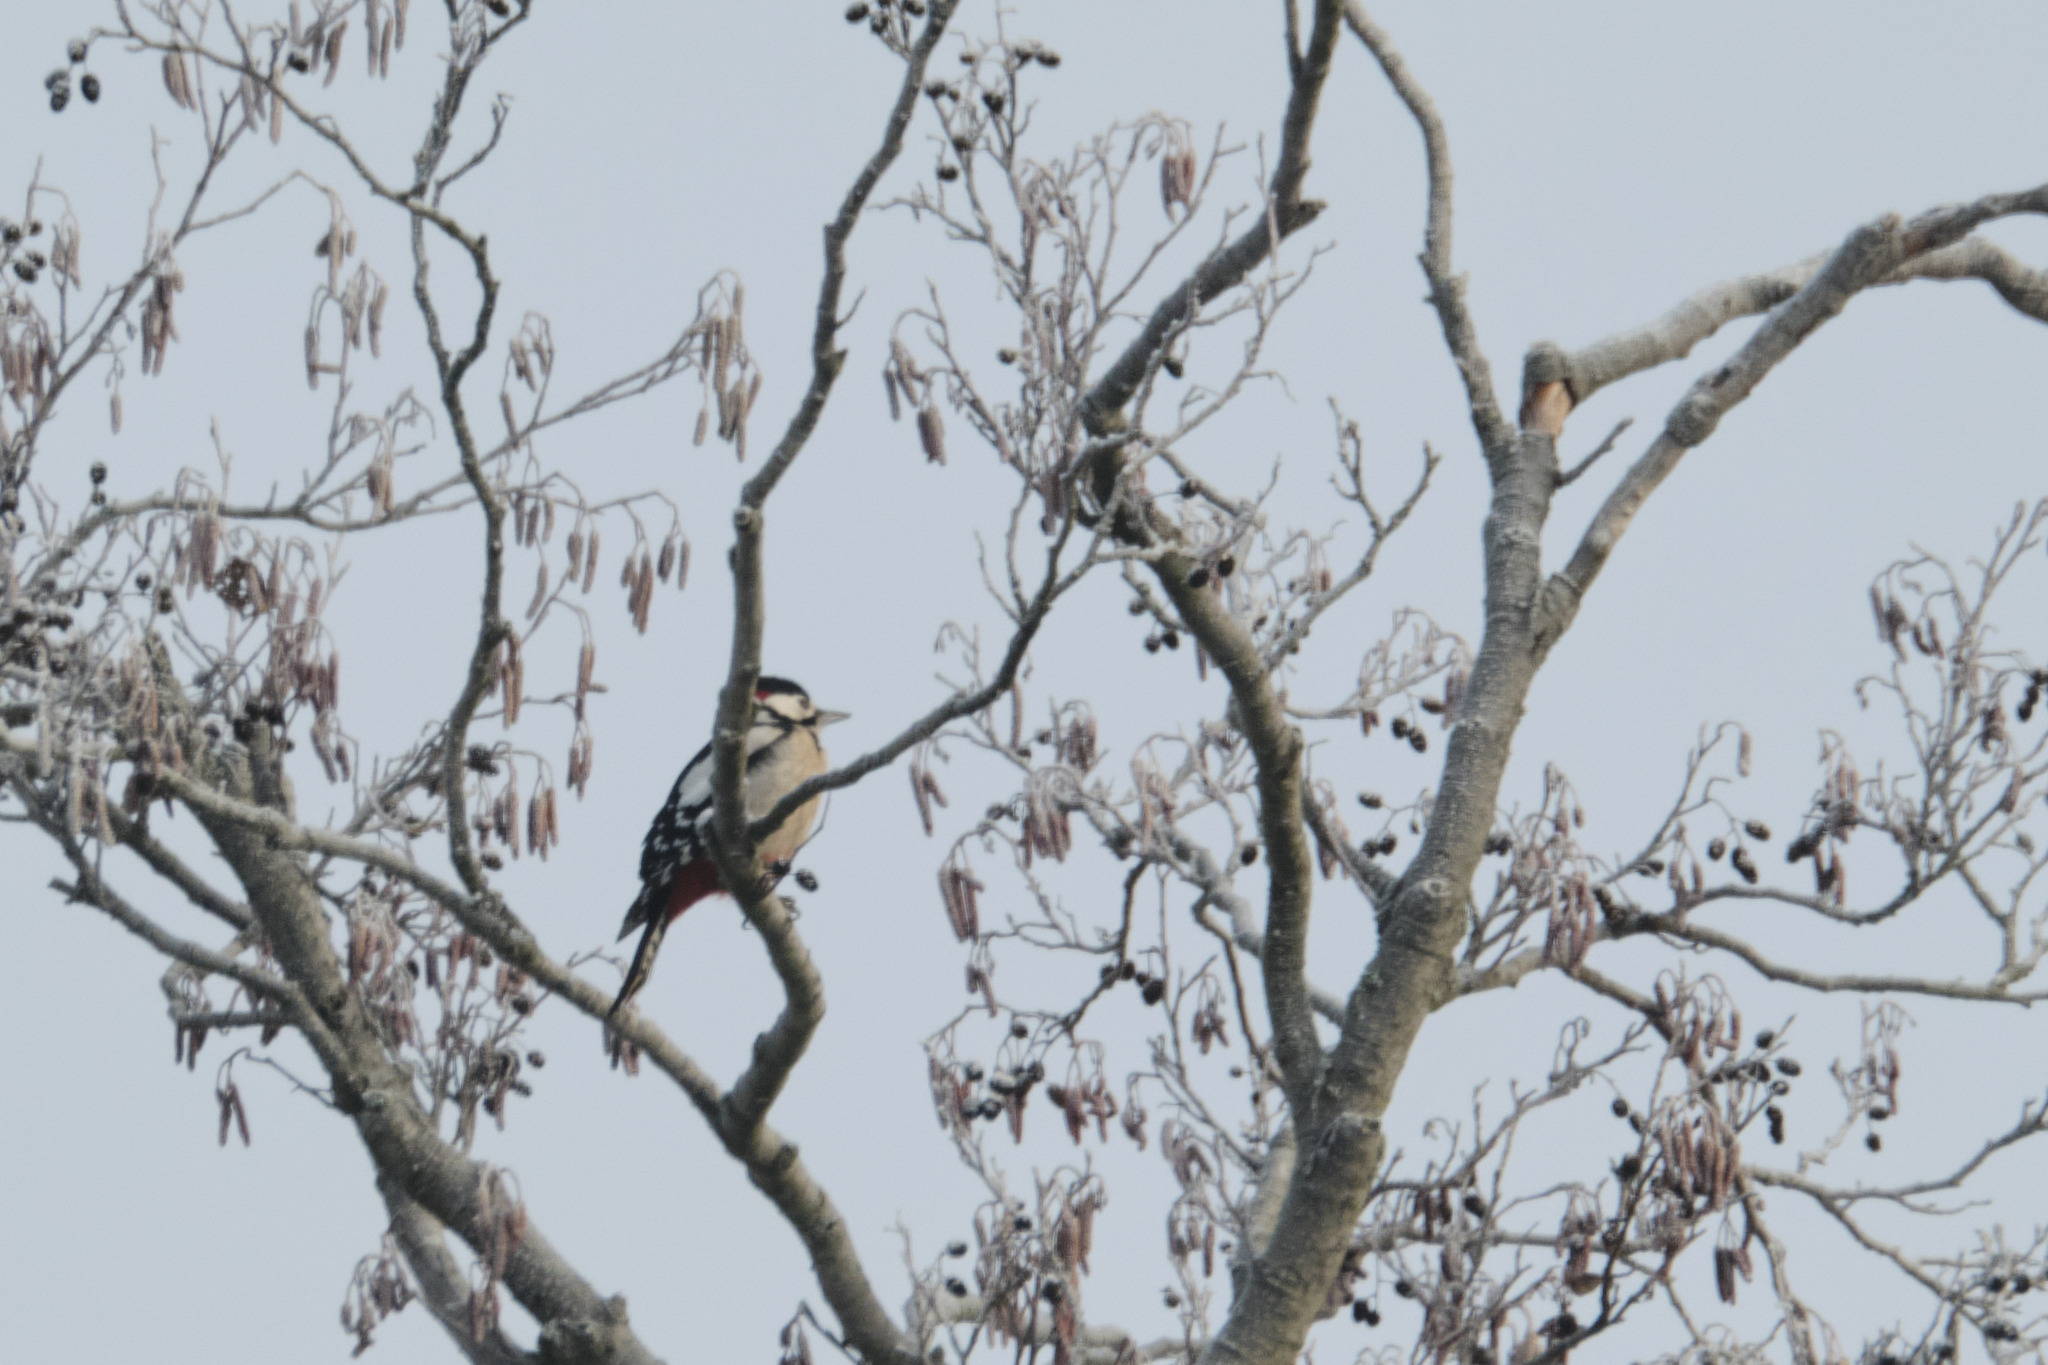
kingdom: Animalia
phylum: Chordata
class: Aves
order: Piciformes
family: Picidae
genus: Dendrocopos
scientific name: Dendrocopos major
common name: Great spotted woodpecker
